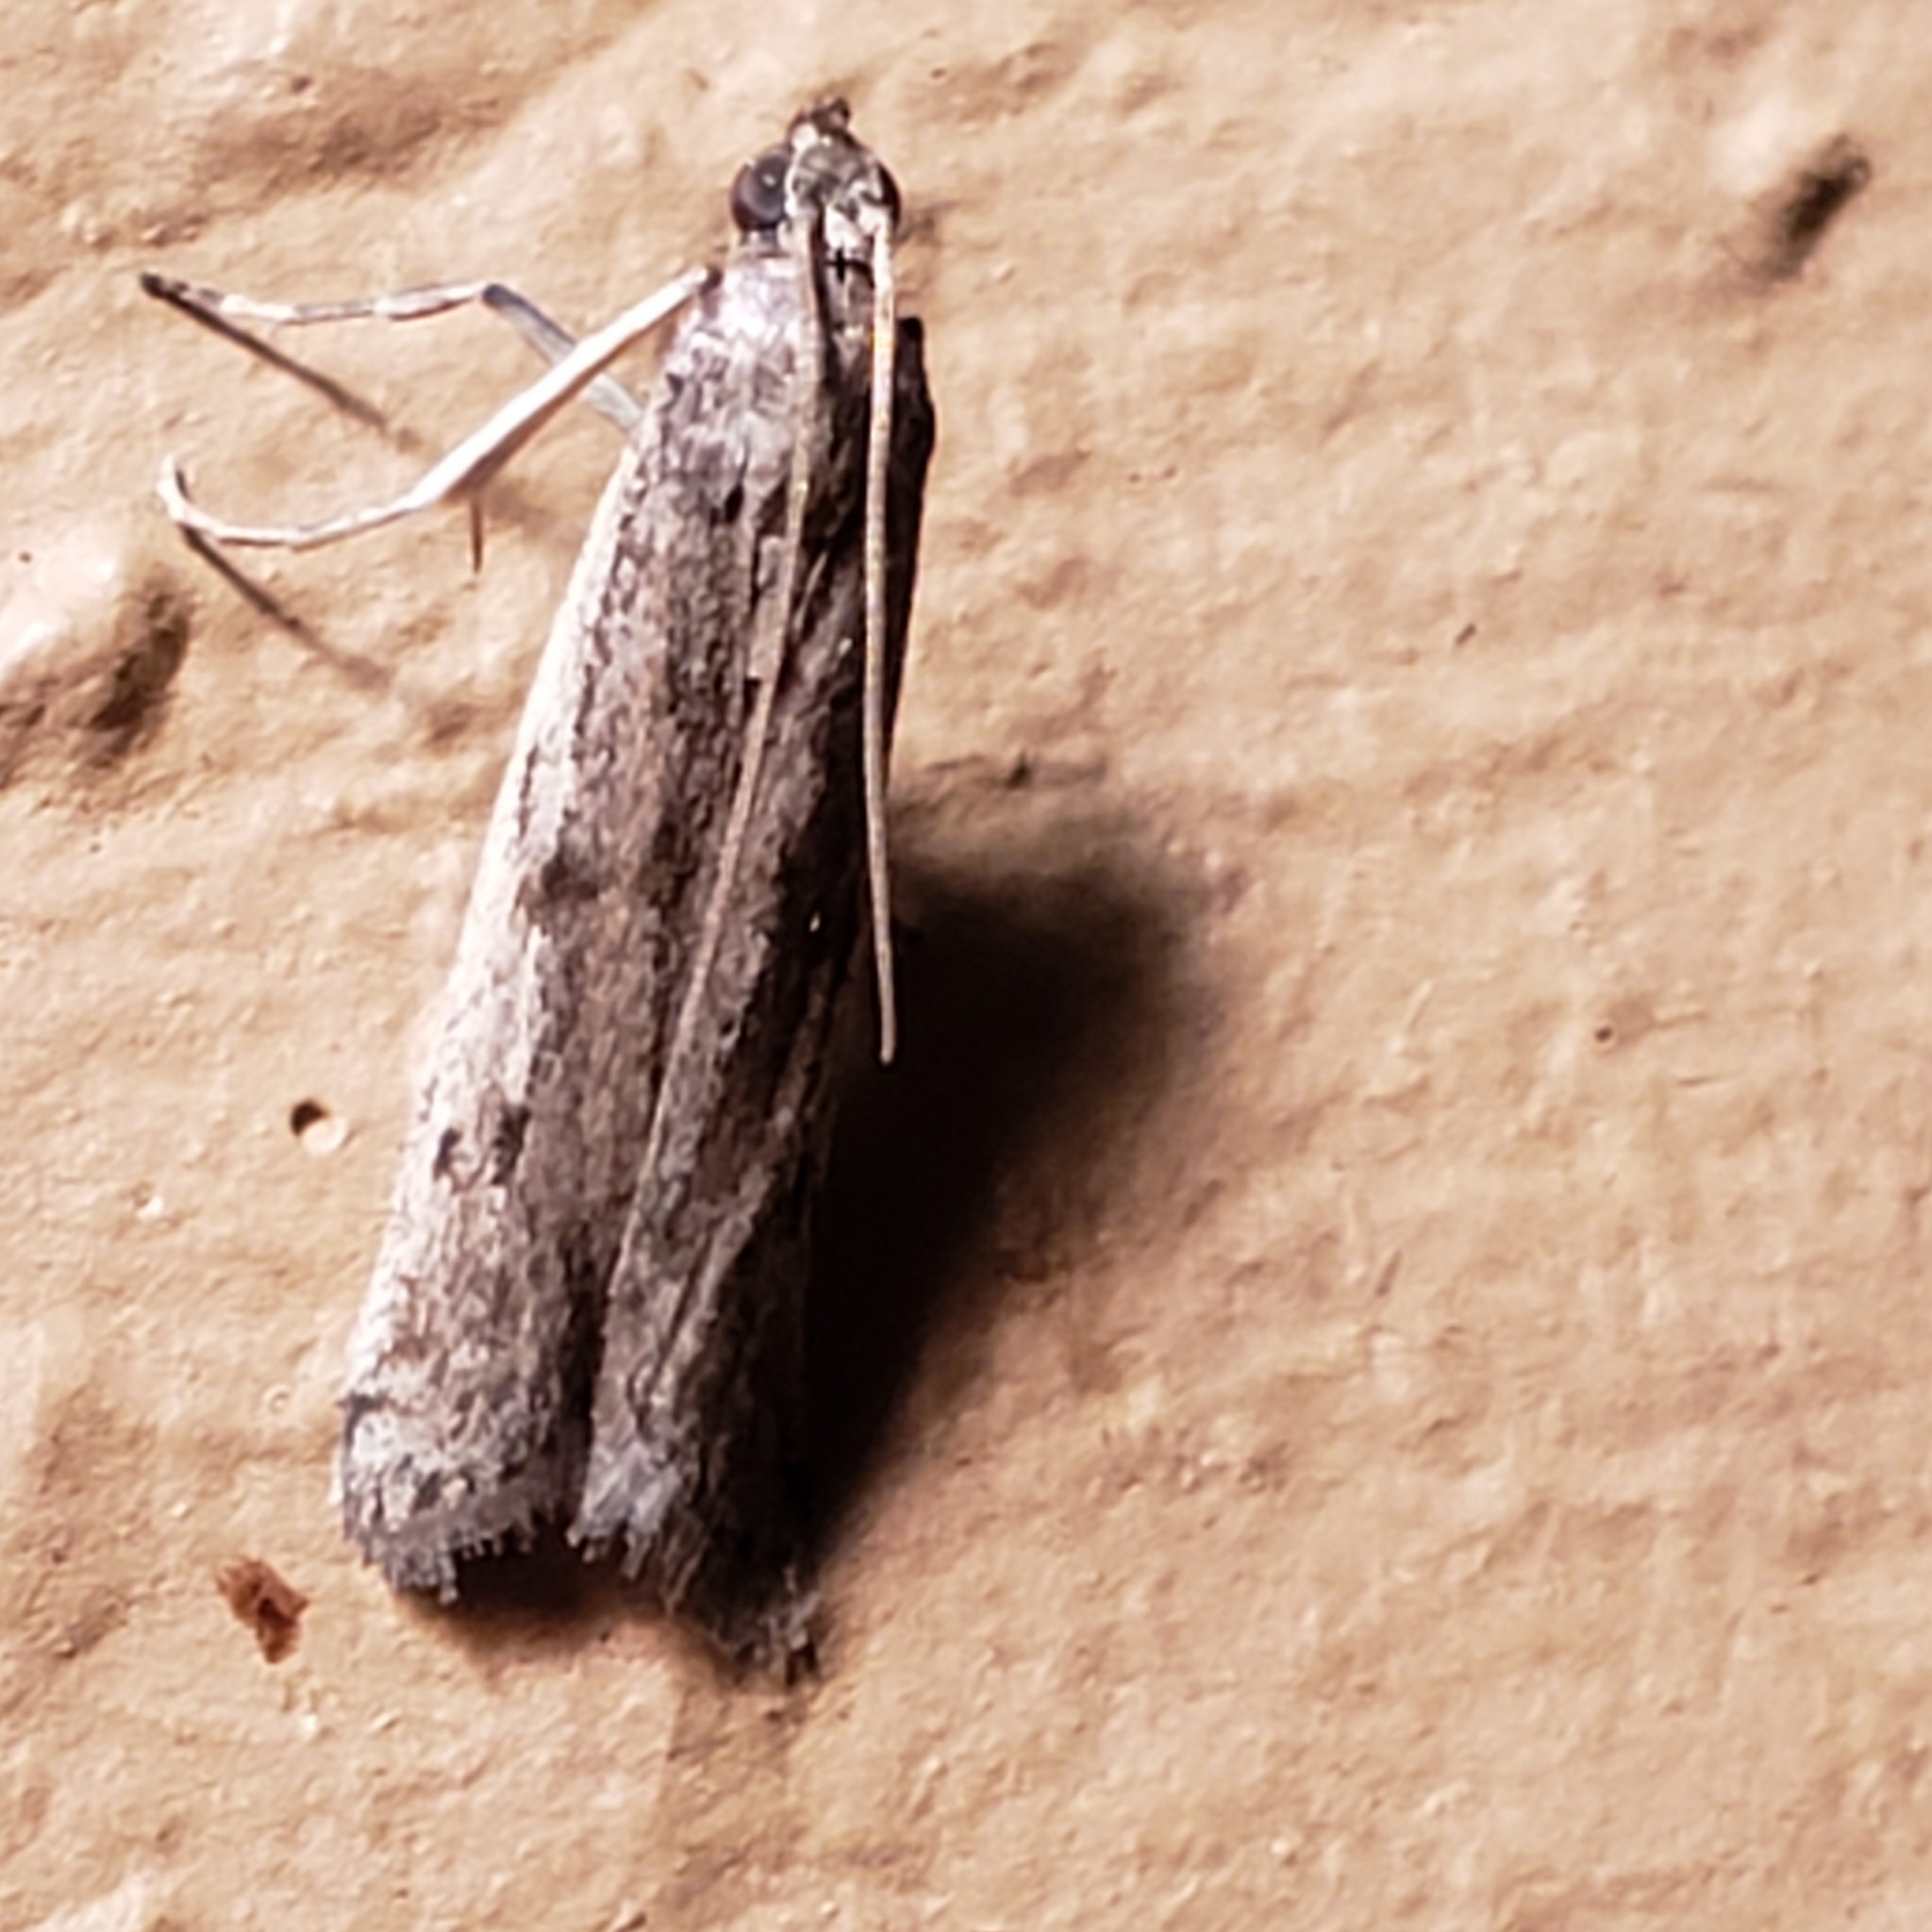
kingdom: Animalia
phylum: Arthropoda
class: Insecta
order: Lepidoptera
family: Pyralidae
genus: Phycitodes
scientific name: Phycitodes mucidellus
